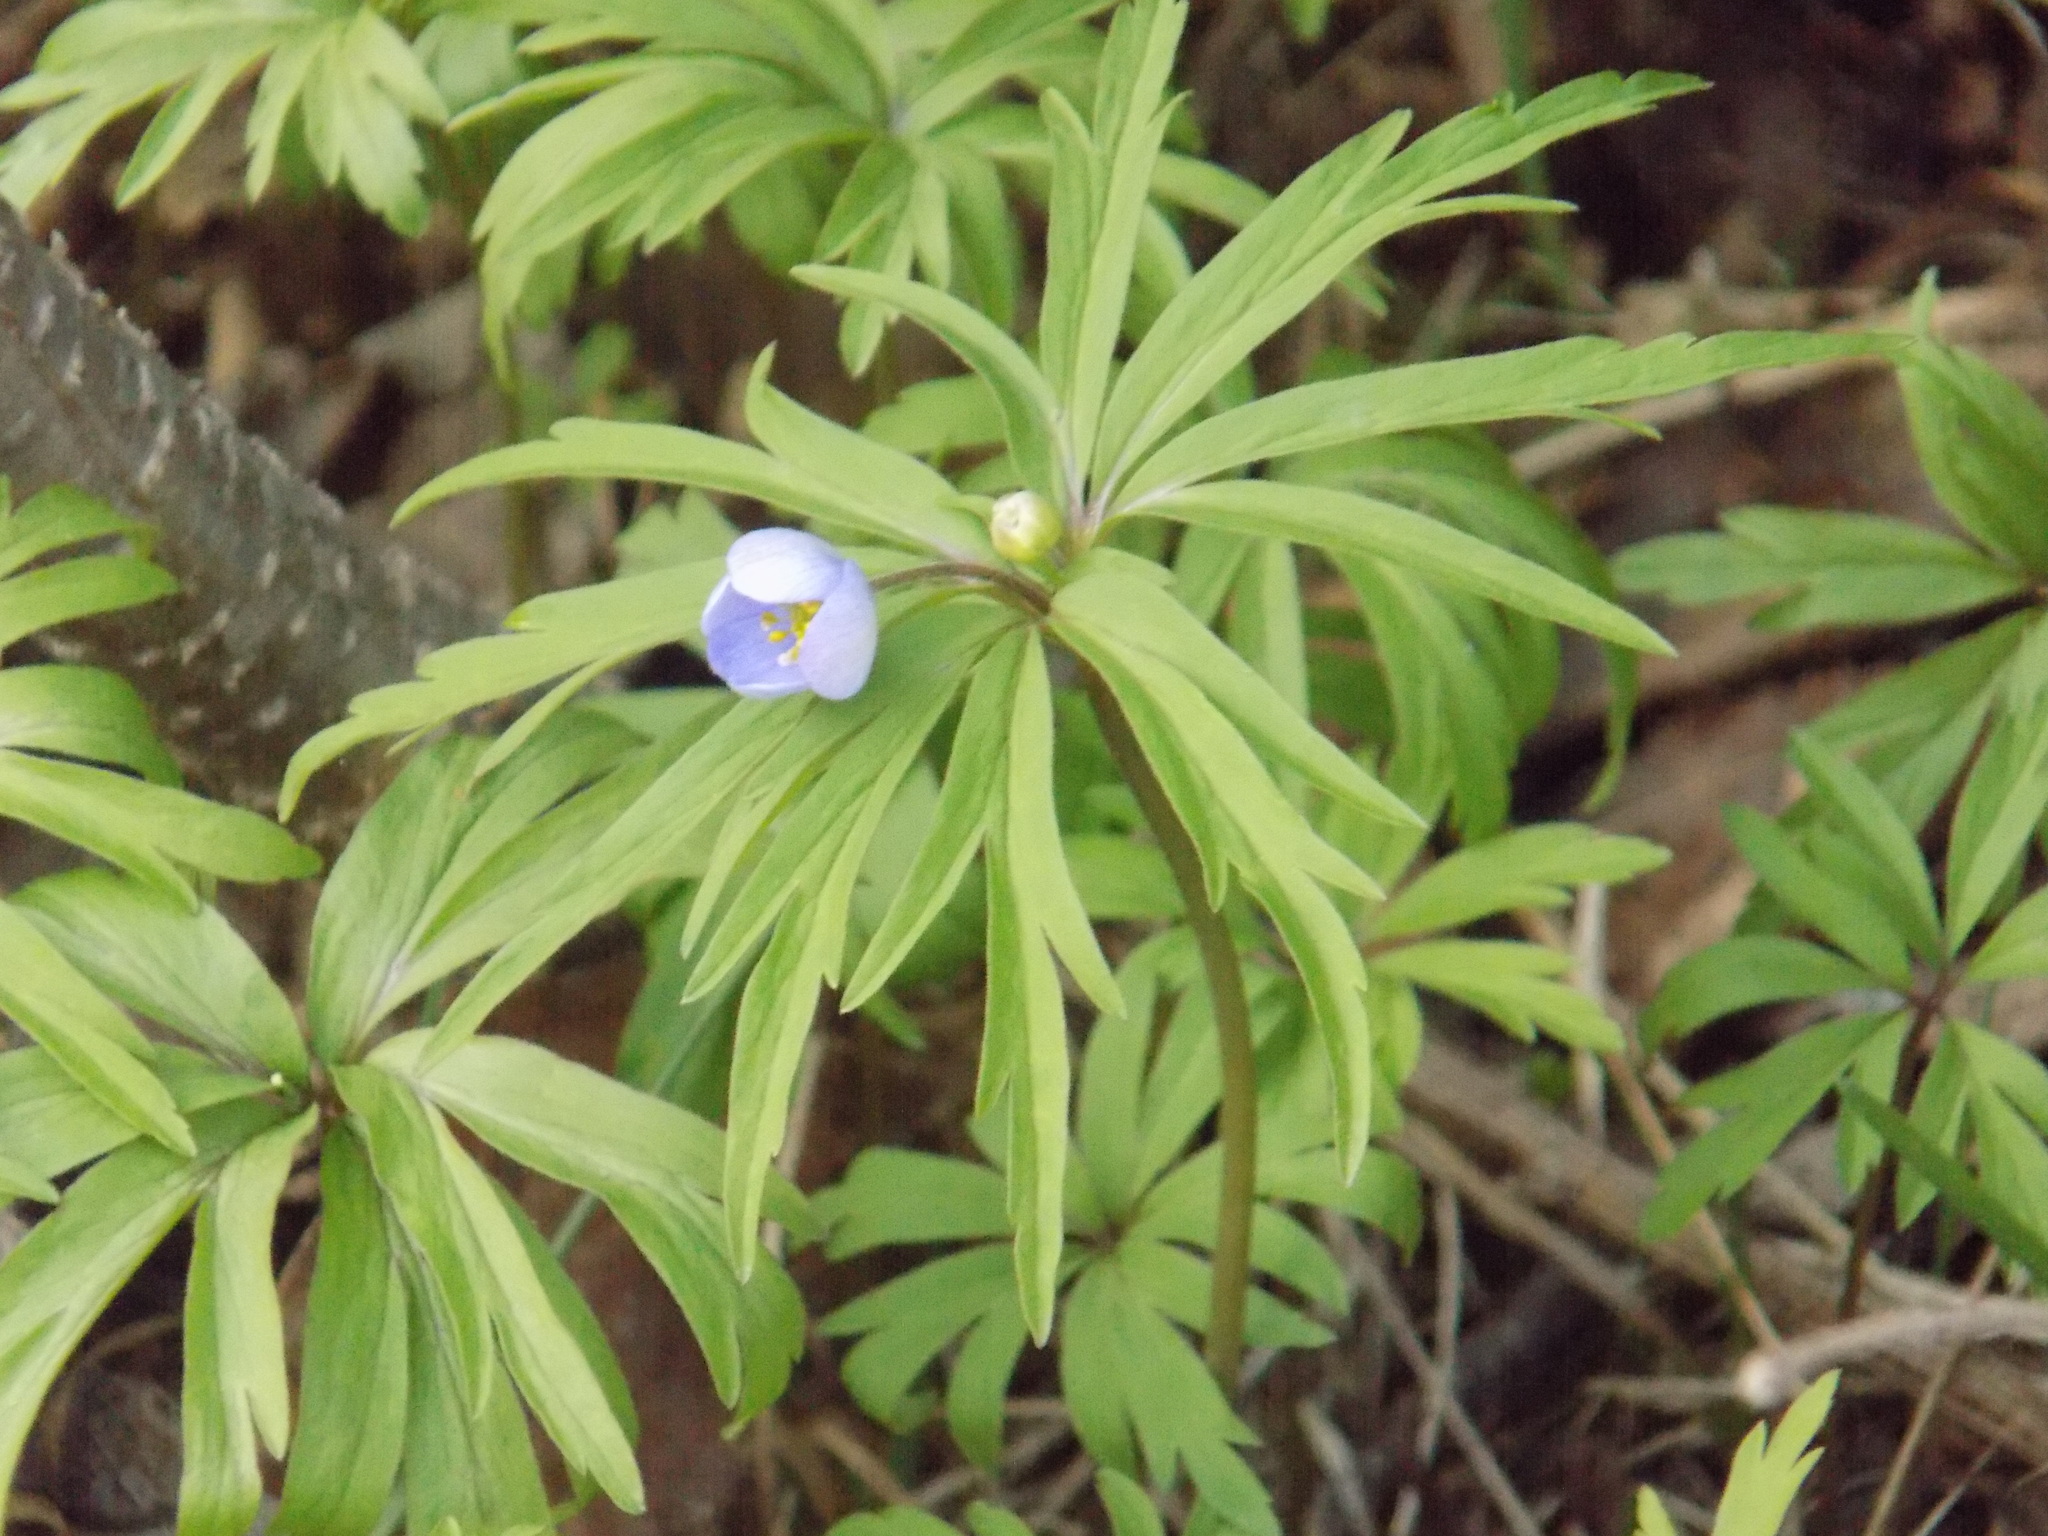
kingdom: Plantae
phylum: Tracheophyta
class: Magnoliopsida
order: Ranunculales
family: Ranunculaceae
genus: Anemone
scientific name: Anemone caerulea
